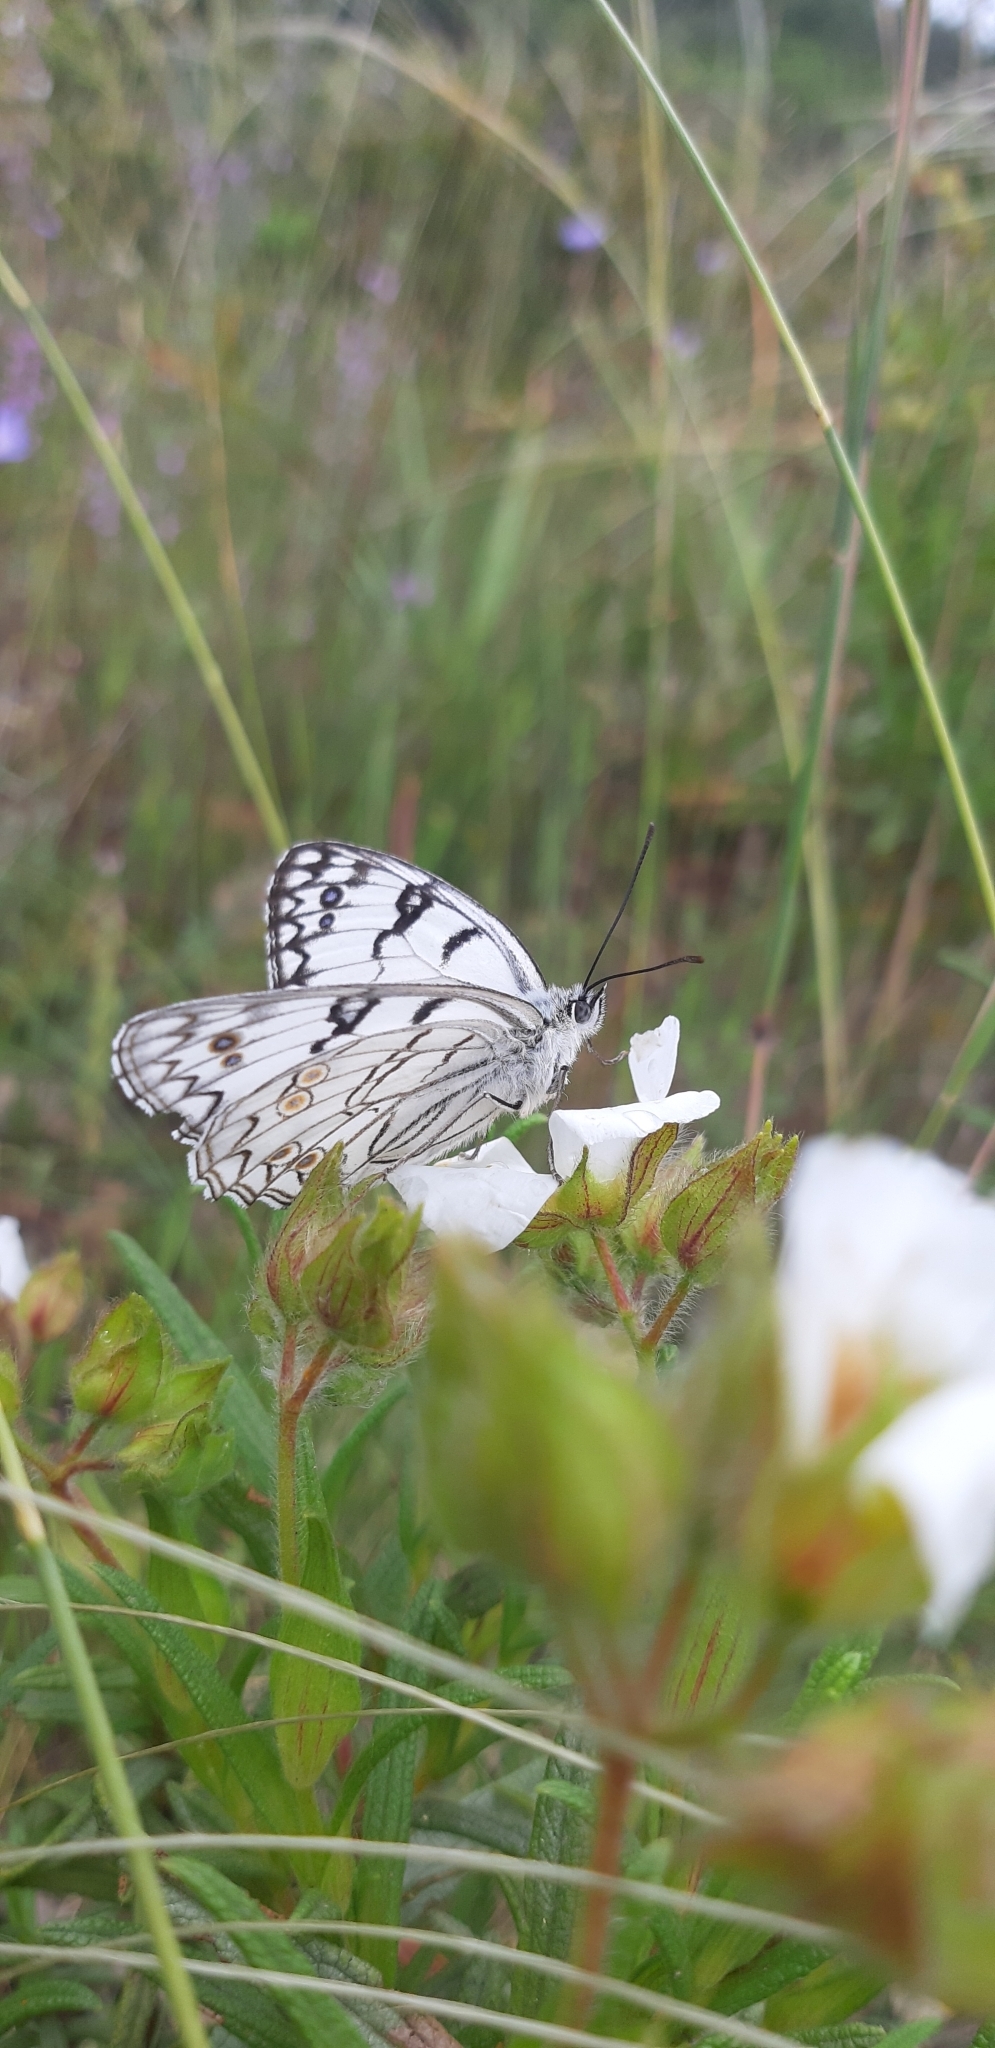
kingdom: Animalia
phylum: Arthropoda
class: Insecta
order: Lepidoptera
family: Nymphalidae
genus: Melanargia
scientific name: Melanargia arge
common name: Italian marbled white
